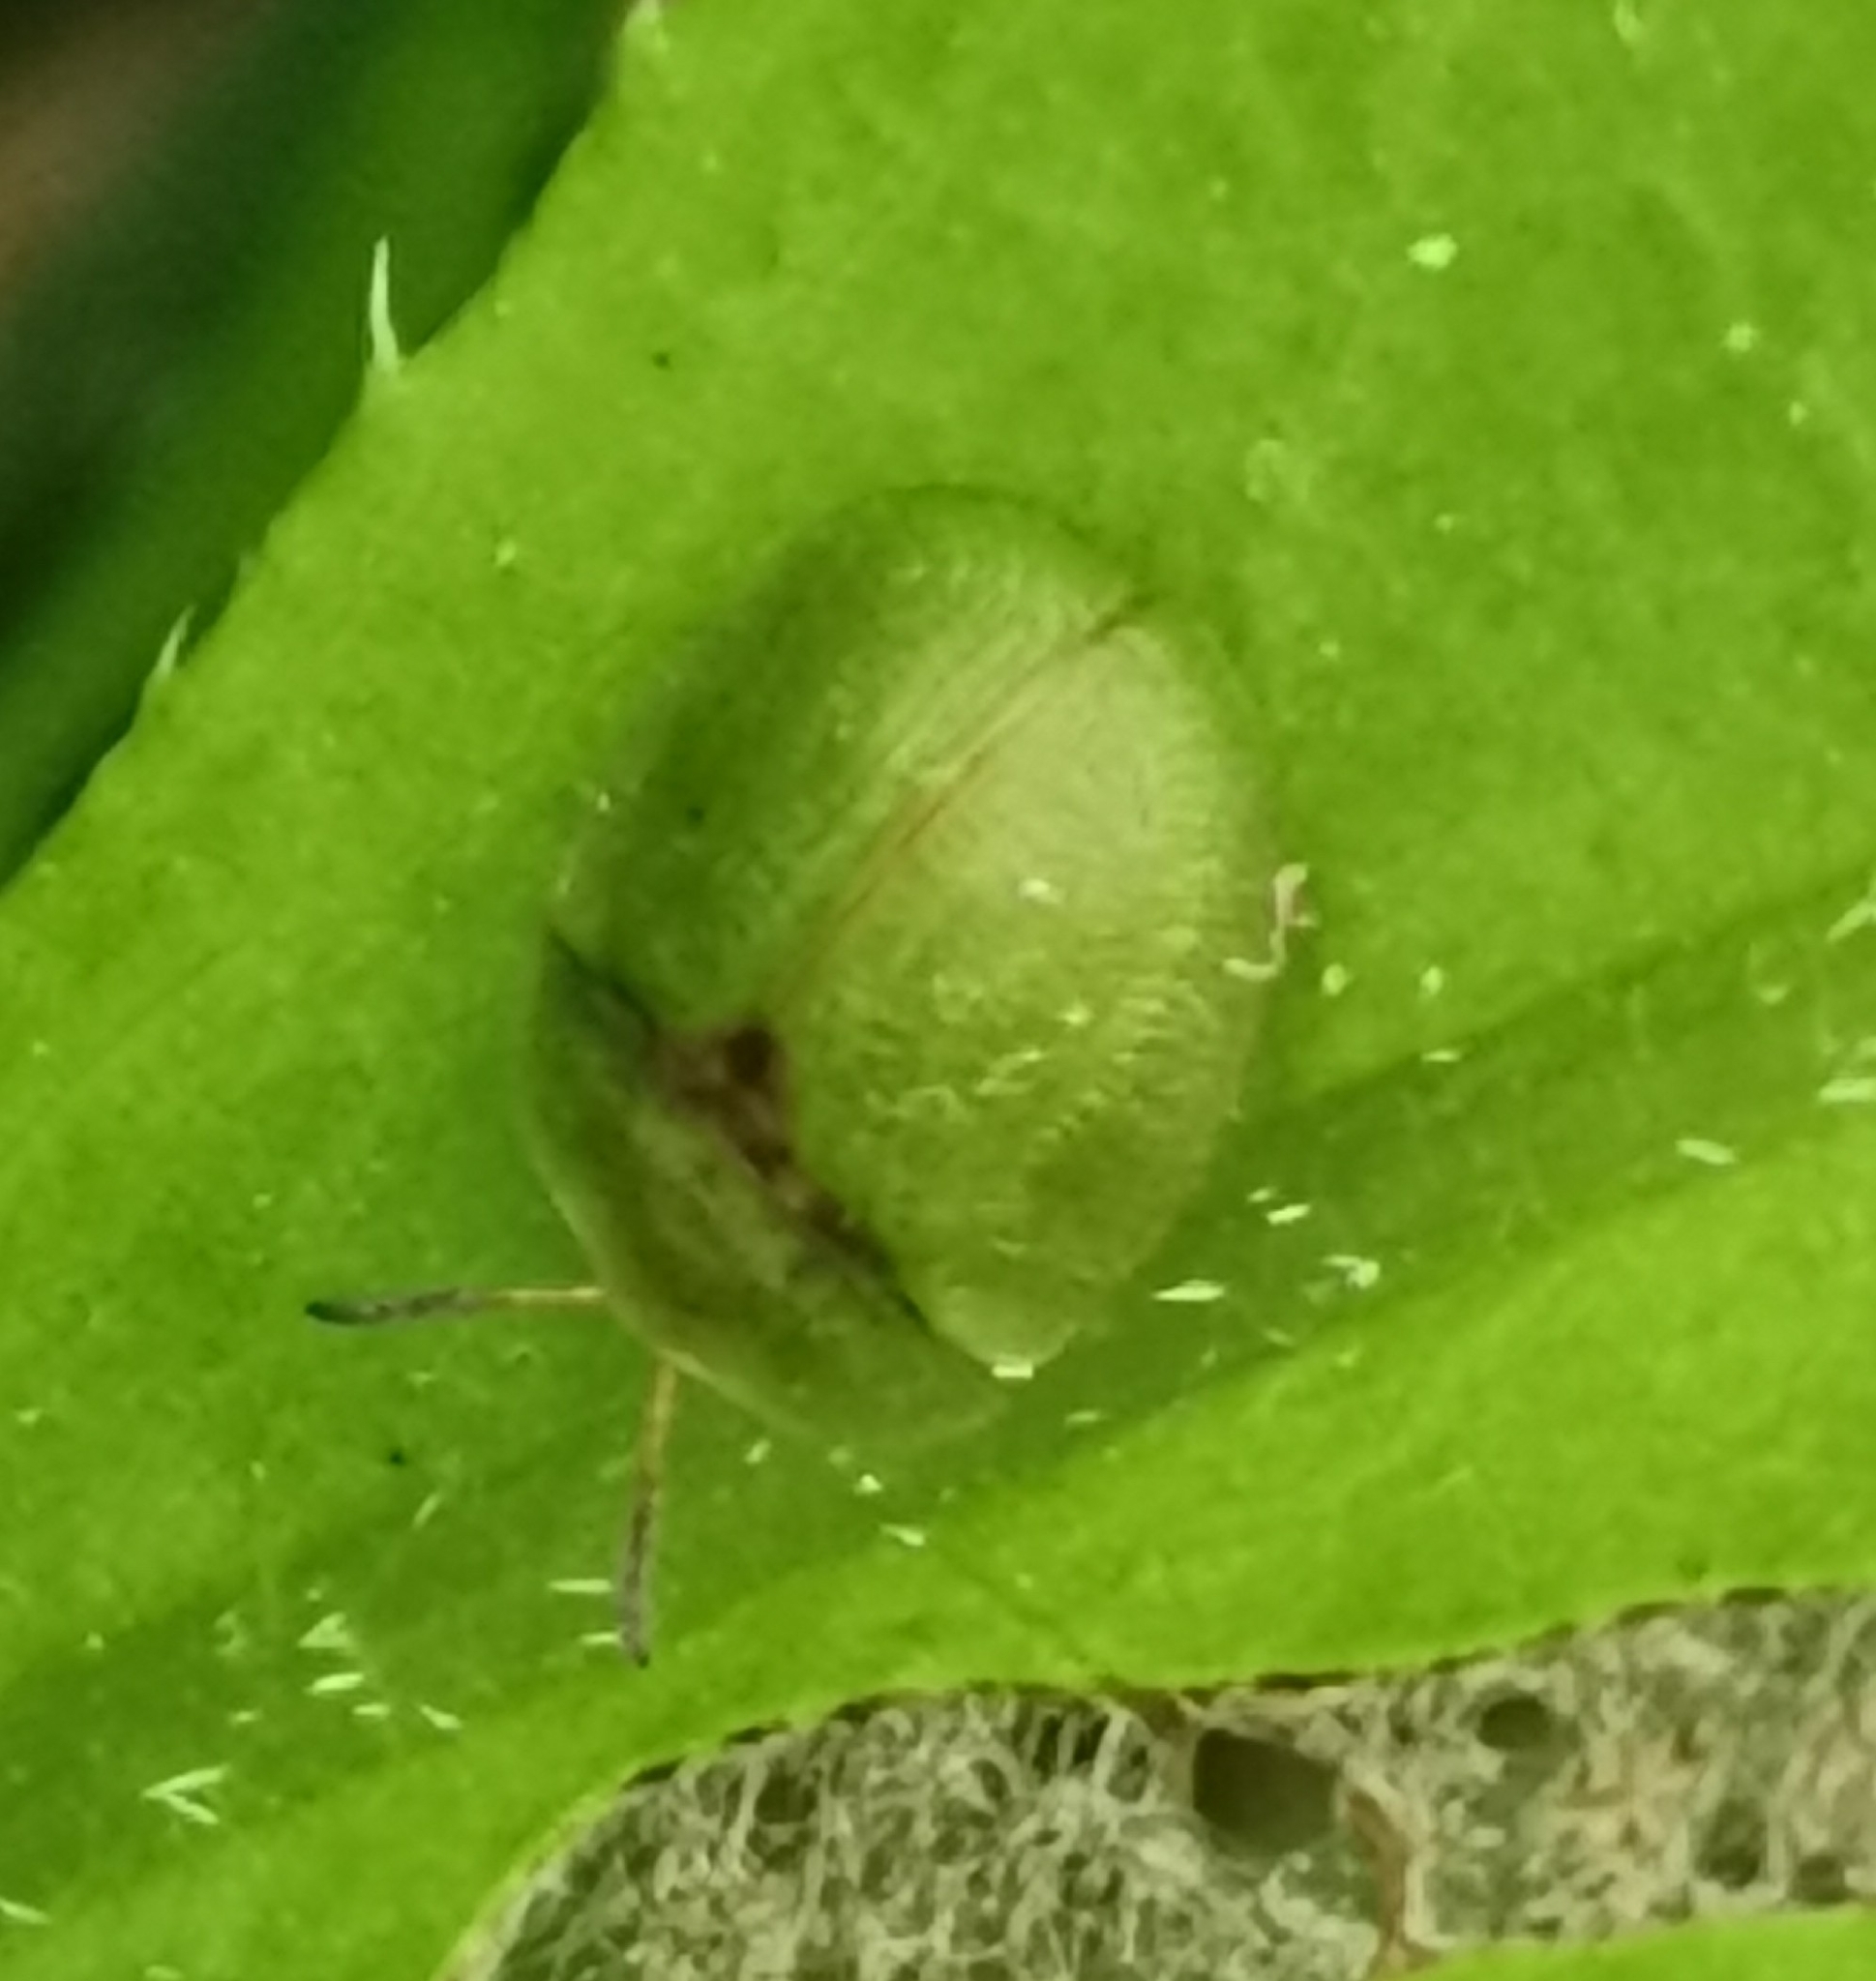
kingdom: Animalia
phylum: Arthropoda
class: Insecta
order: Coleoptera
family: Chrysomelidae
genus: Cassida
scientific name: Cassida rubiginosa
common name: Thistle tortoise beetle
